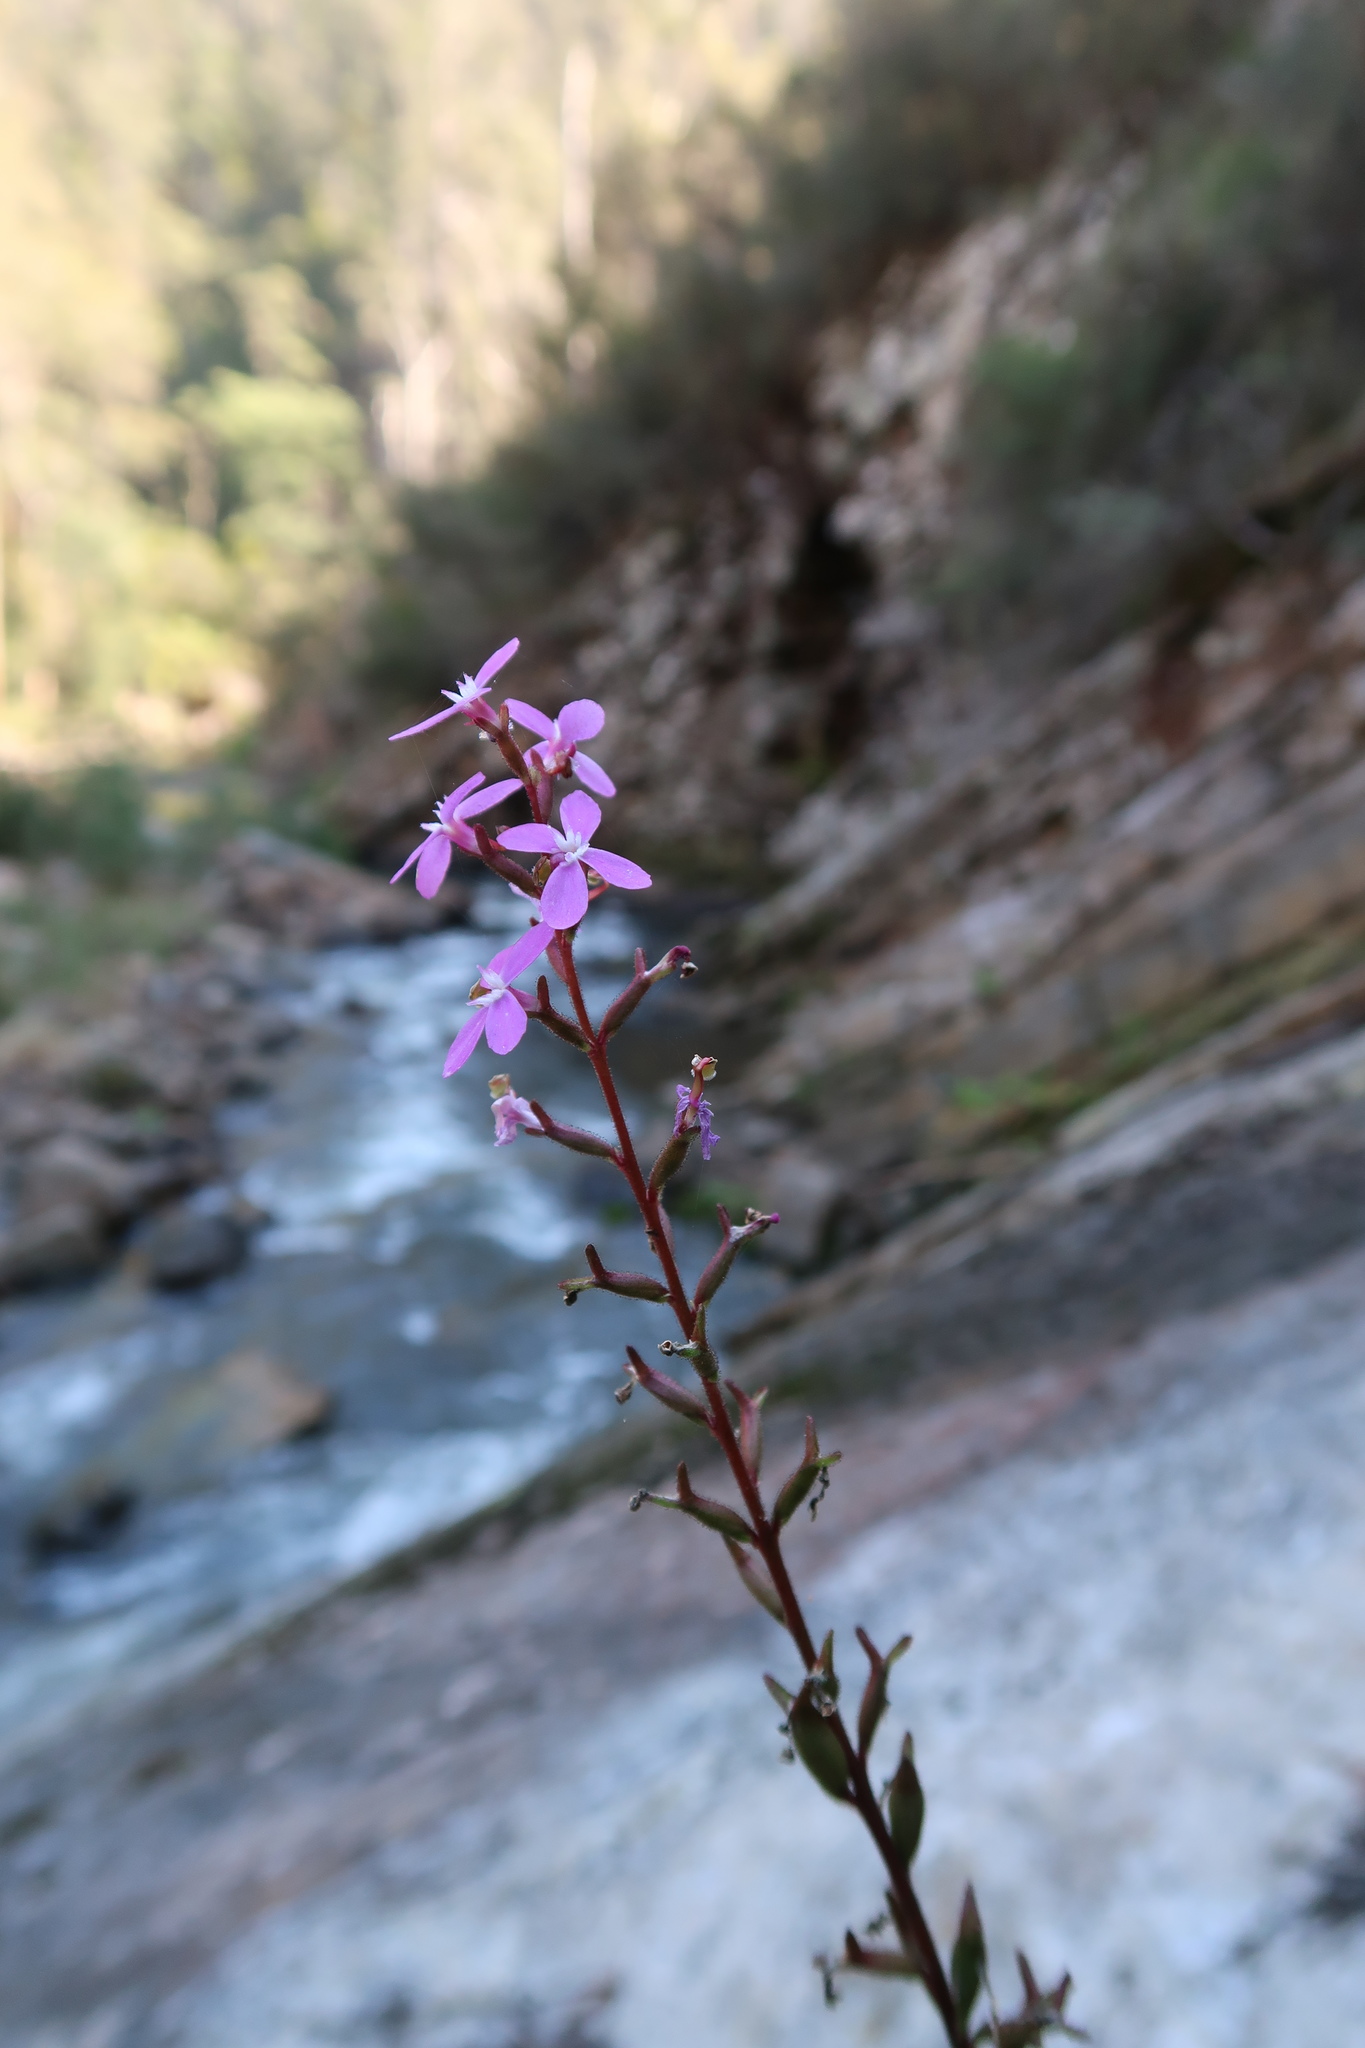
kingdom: Plantae
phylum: Tracheophyta
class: Magnoliopsida
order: Asterales
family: Stylidiaceae
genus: Stylidium
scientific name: Stylidium graminifolium
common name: Grass triggerplant
